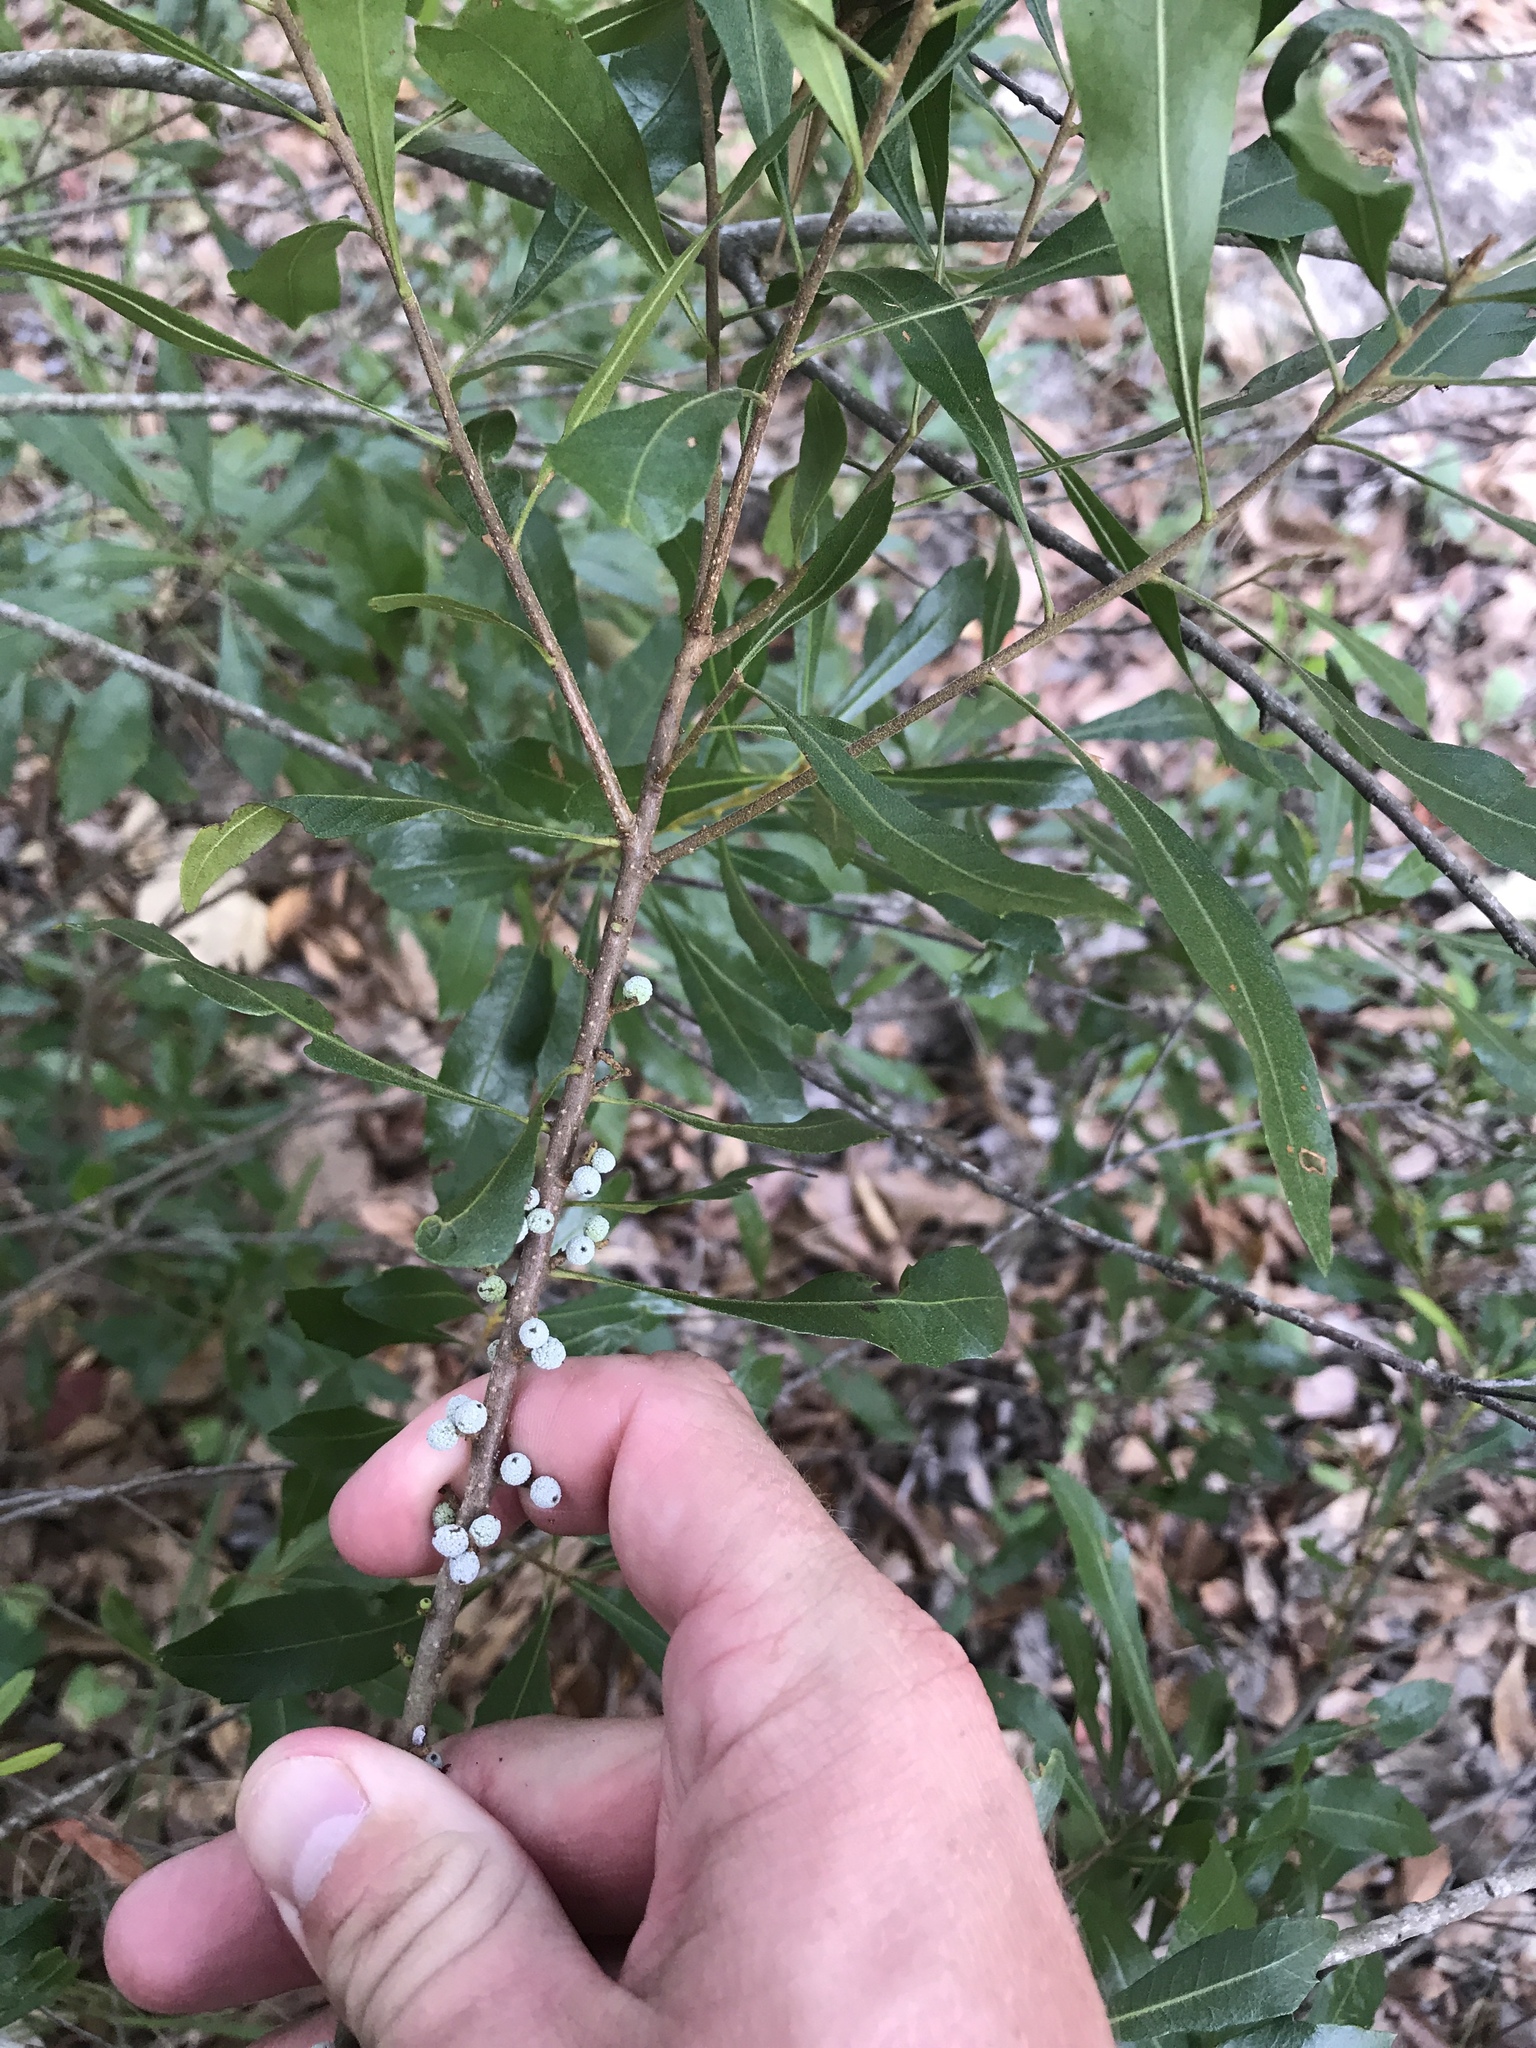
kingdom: Plantae
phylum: Tracheophyta
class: Magnoliopsida
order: Fagales
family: Myricaceae
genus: Morella
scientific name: Morella cerifera
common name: Wax myrtle
